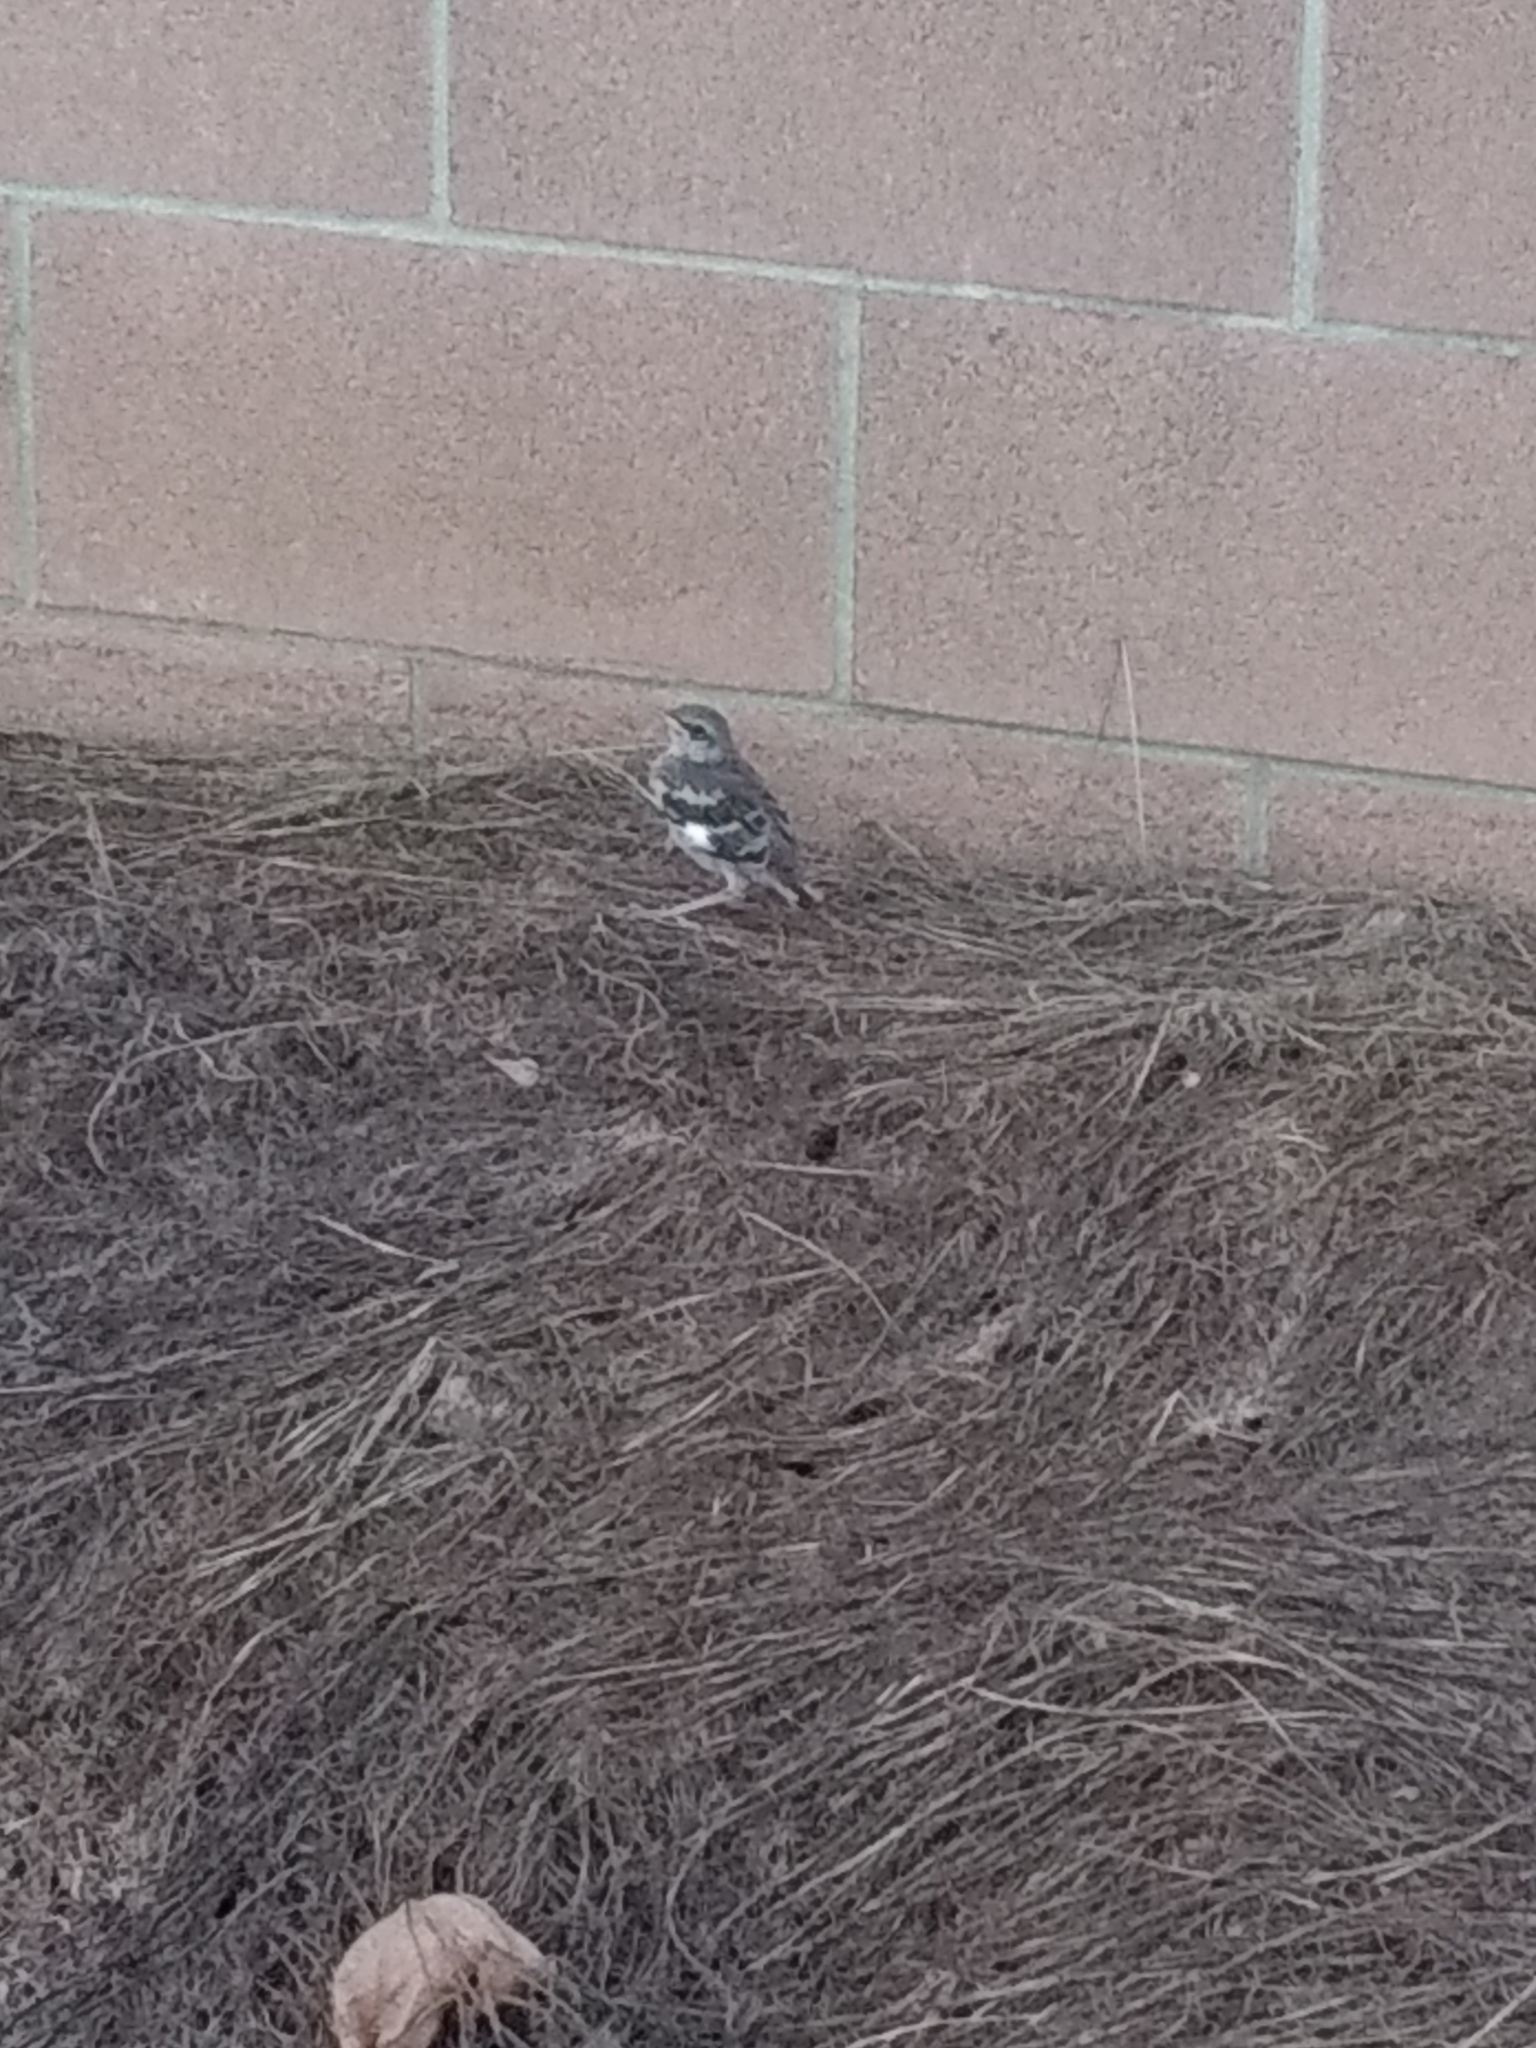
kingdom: Animalia
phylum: Chordata
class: Aves
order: Passeriformes
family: Mimidae
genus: Mimus
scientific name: Mimus polyglottos
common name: Northern mockingbird
